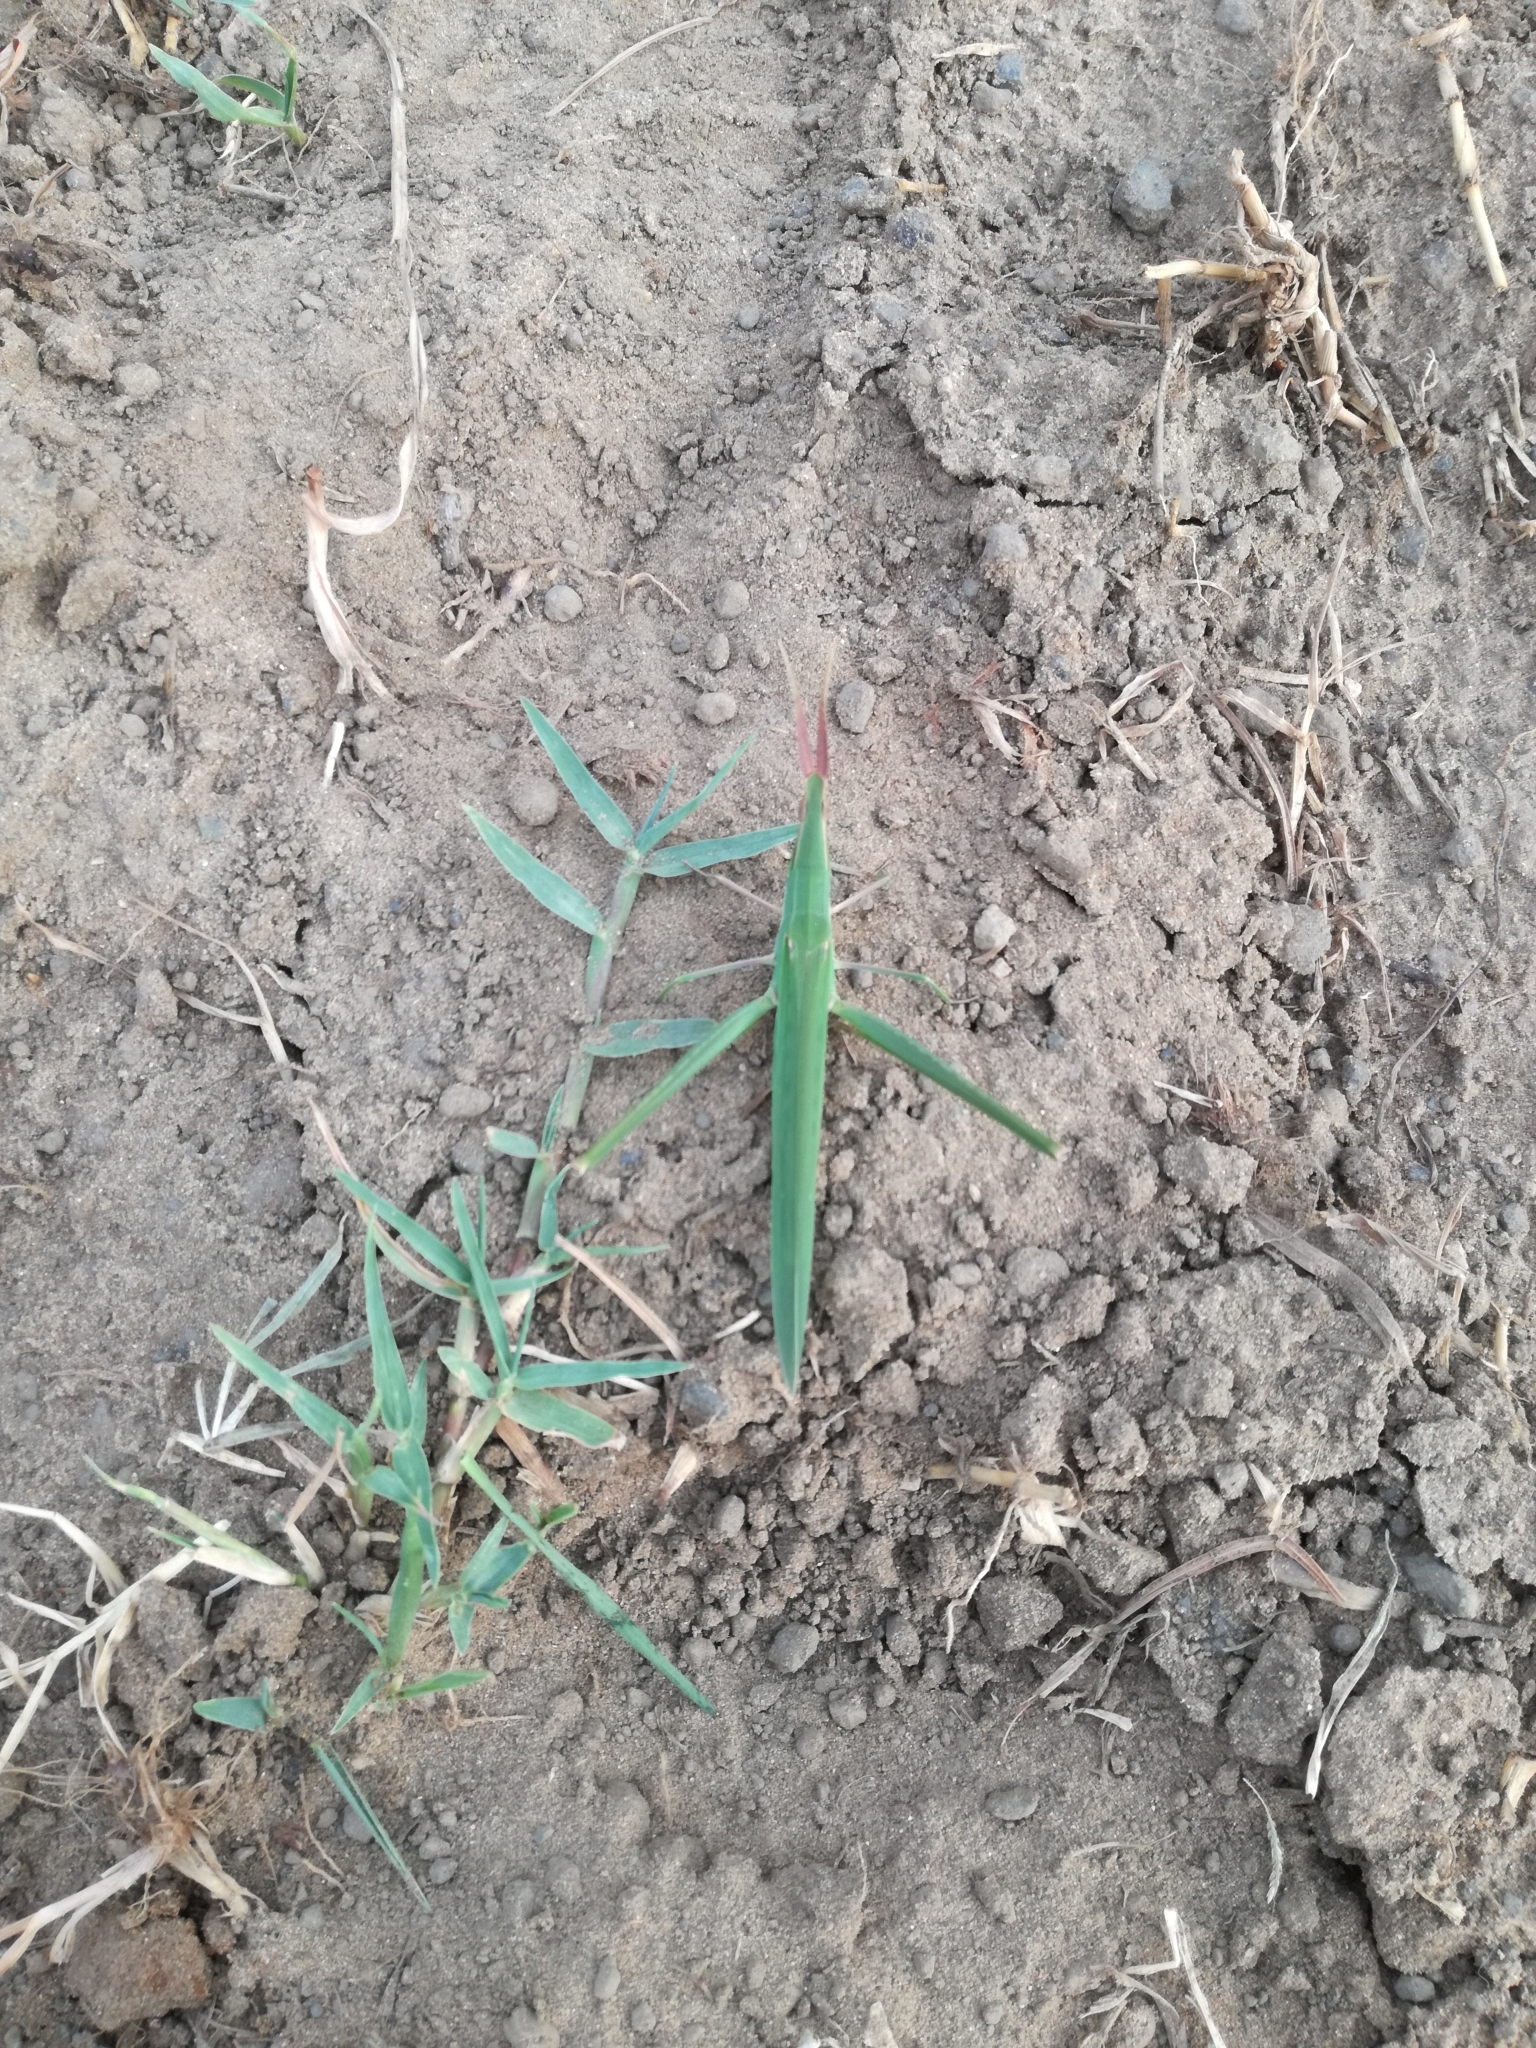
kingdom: Animalia
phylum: Arthropoda
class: Insecta
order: Orthoptera
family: Acrididae
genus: Acrida
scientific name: Acrida ungarica
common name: Common cone-headed grasshopper
